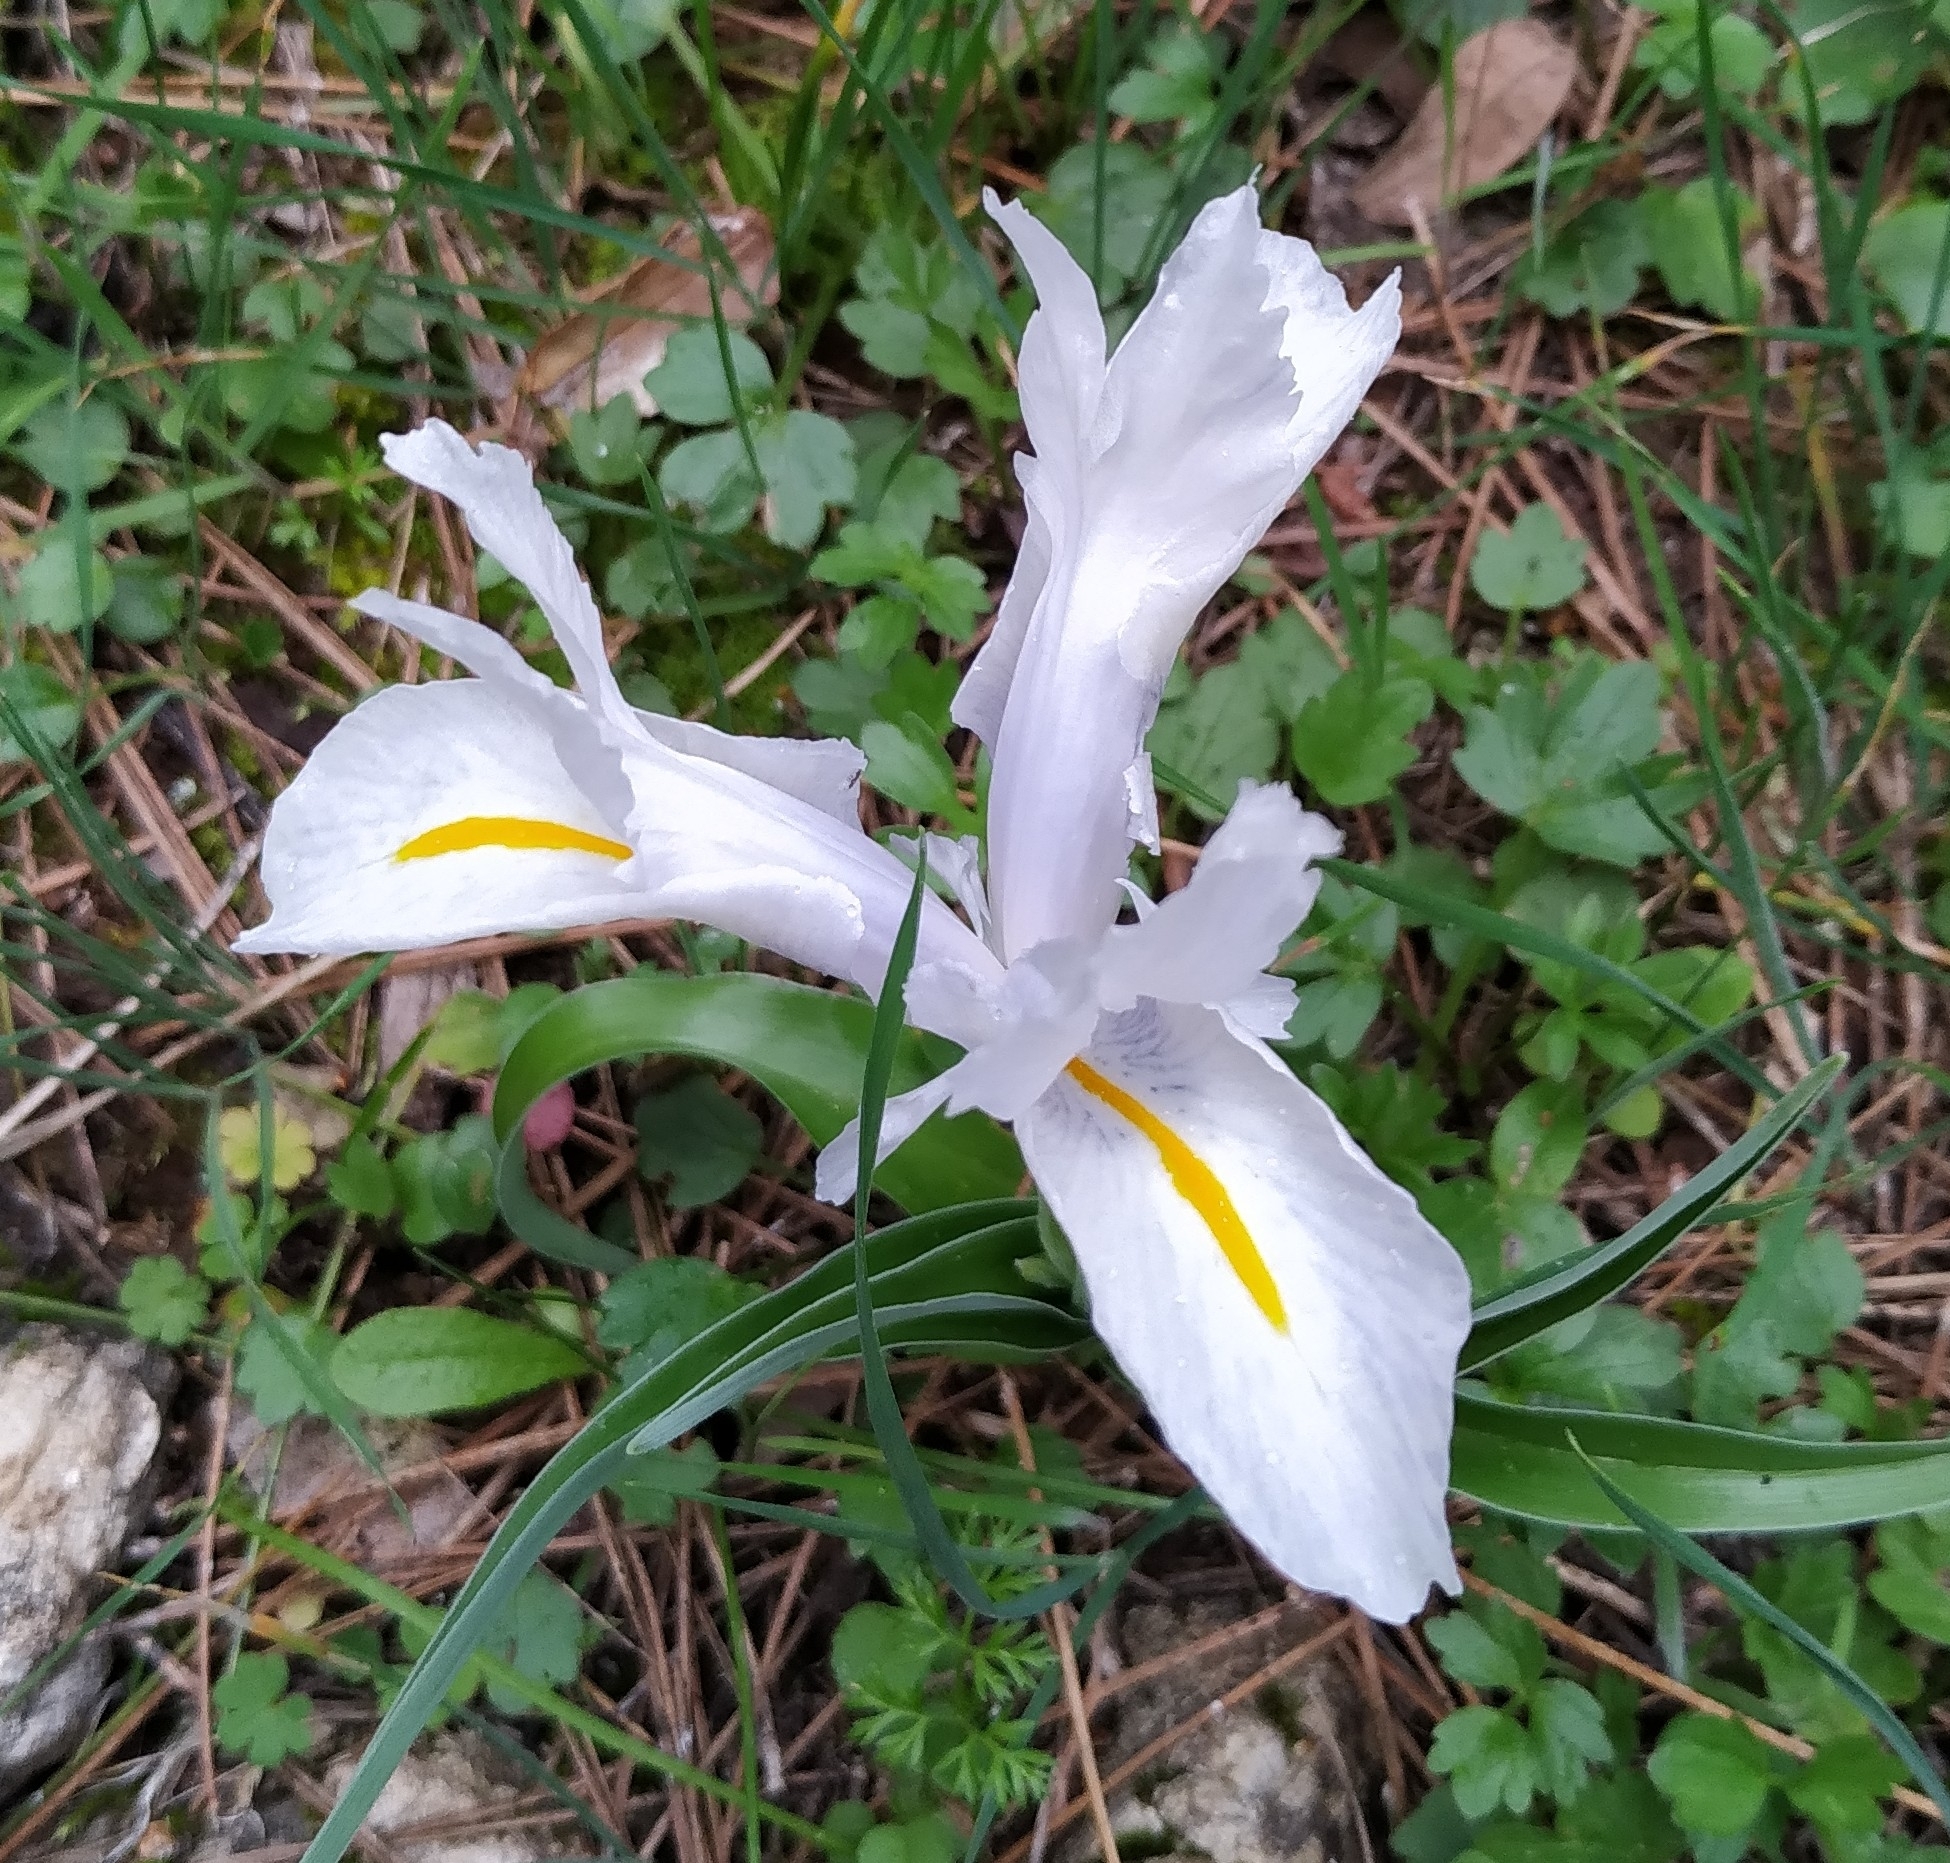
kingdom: Plantae
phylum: Tracheophyta
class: Liliopsida
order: Asparagales
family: Iridaceae
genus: Iris
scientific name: Iris planifolia
